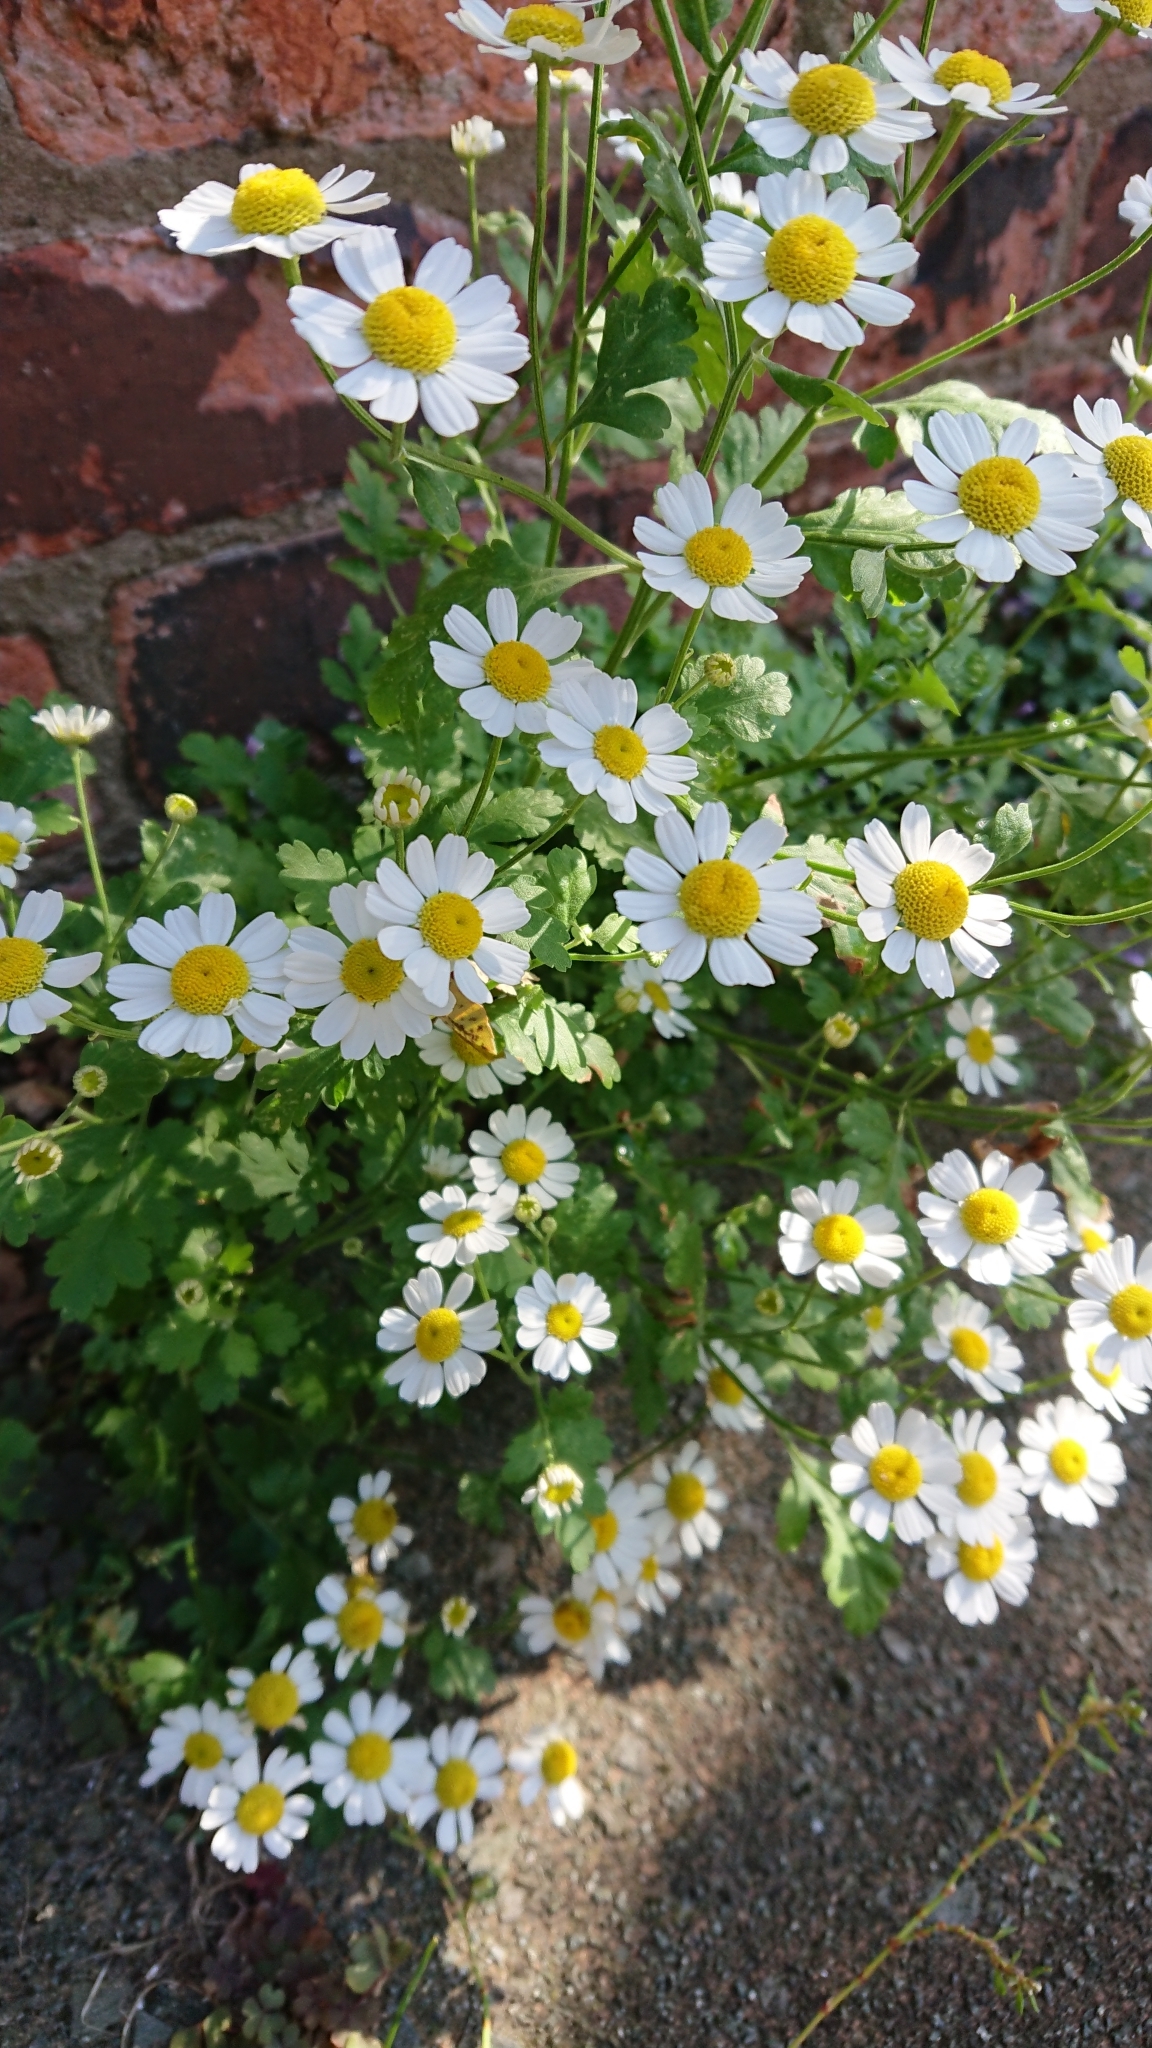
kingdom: Plantae
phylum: Tracheophyta
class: Magnoliopsida
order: Asterales
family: Asteraceae
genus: Tanacetum
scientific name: Tanacetum parthenium
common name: Feverfew
